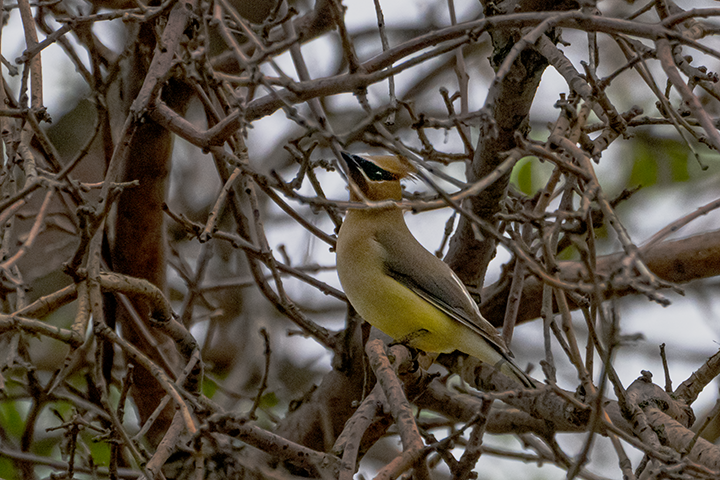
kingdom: Animalia
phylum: Chordata
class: Aves
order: Passeriformes
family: Bombycillidae
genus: Bombycilla
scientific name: Bombycilla cedrorum
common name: Cedar waxwing
